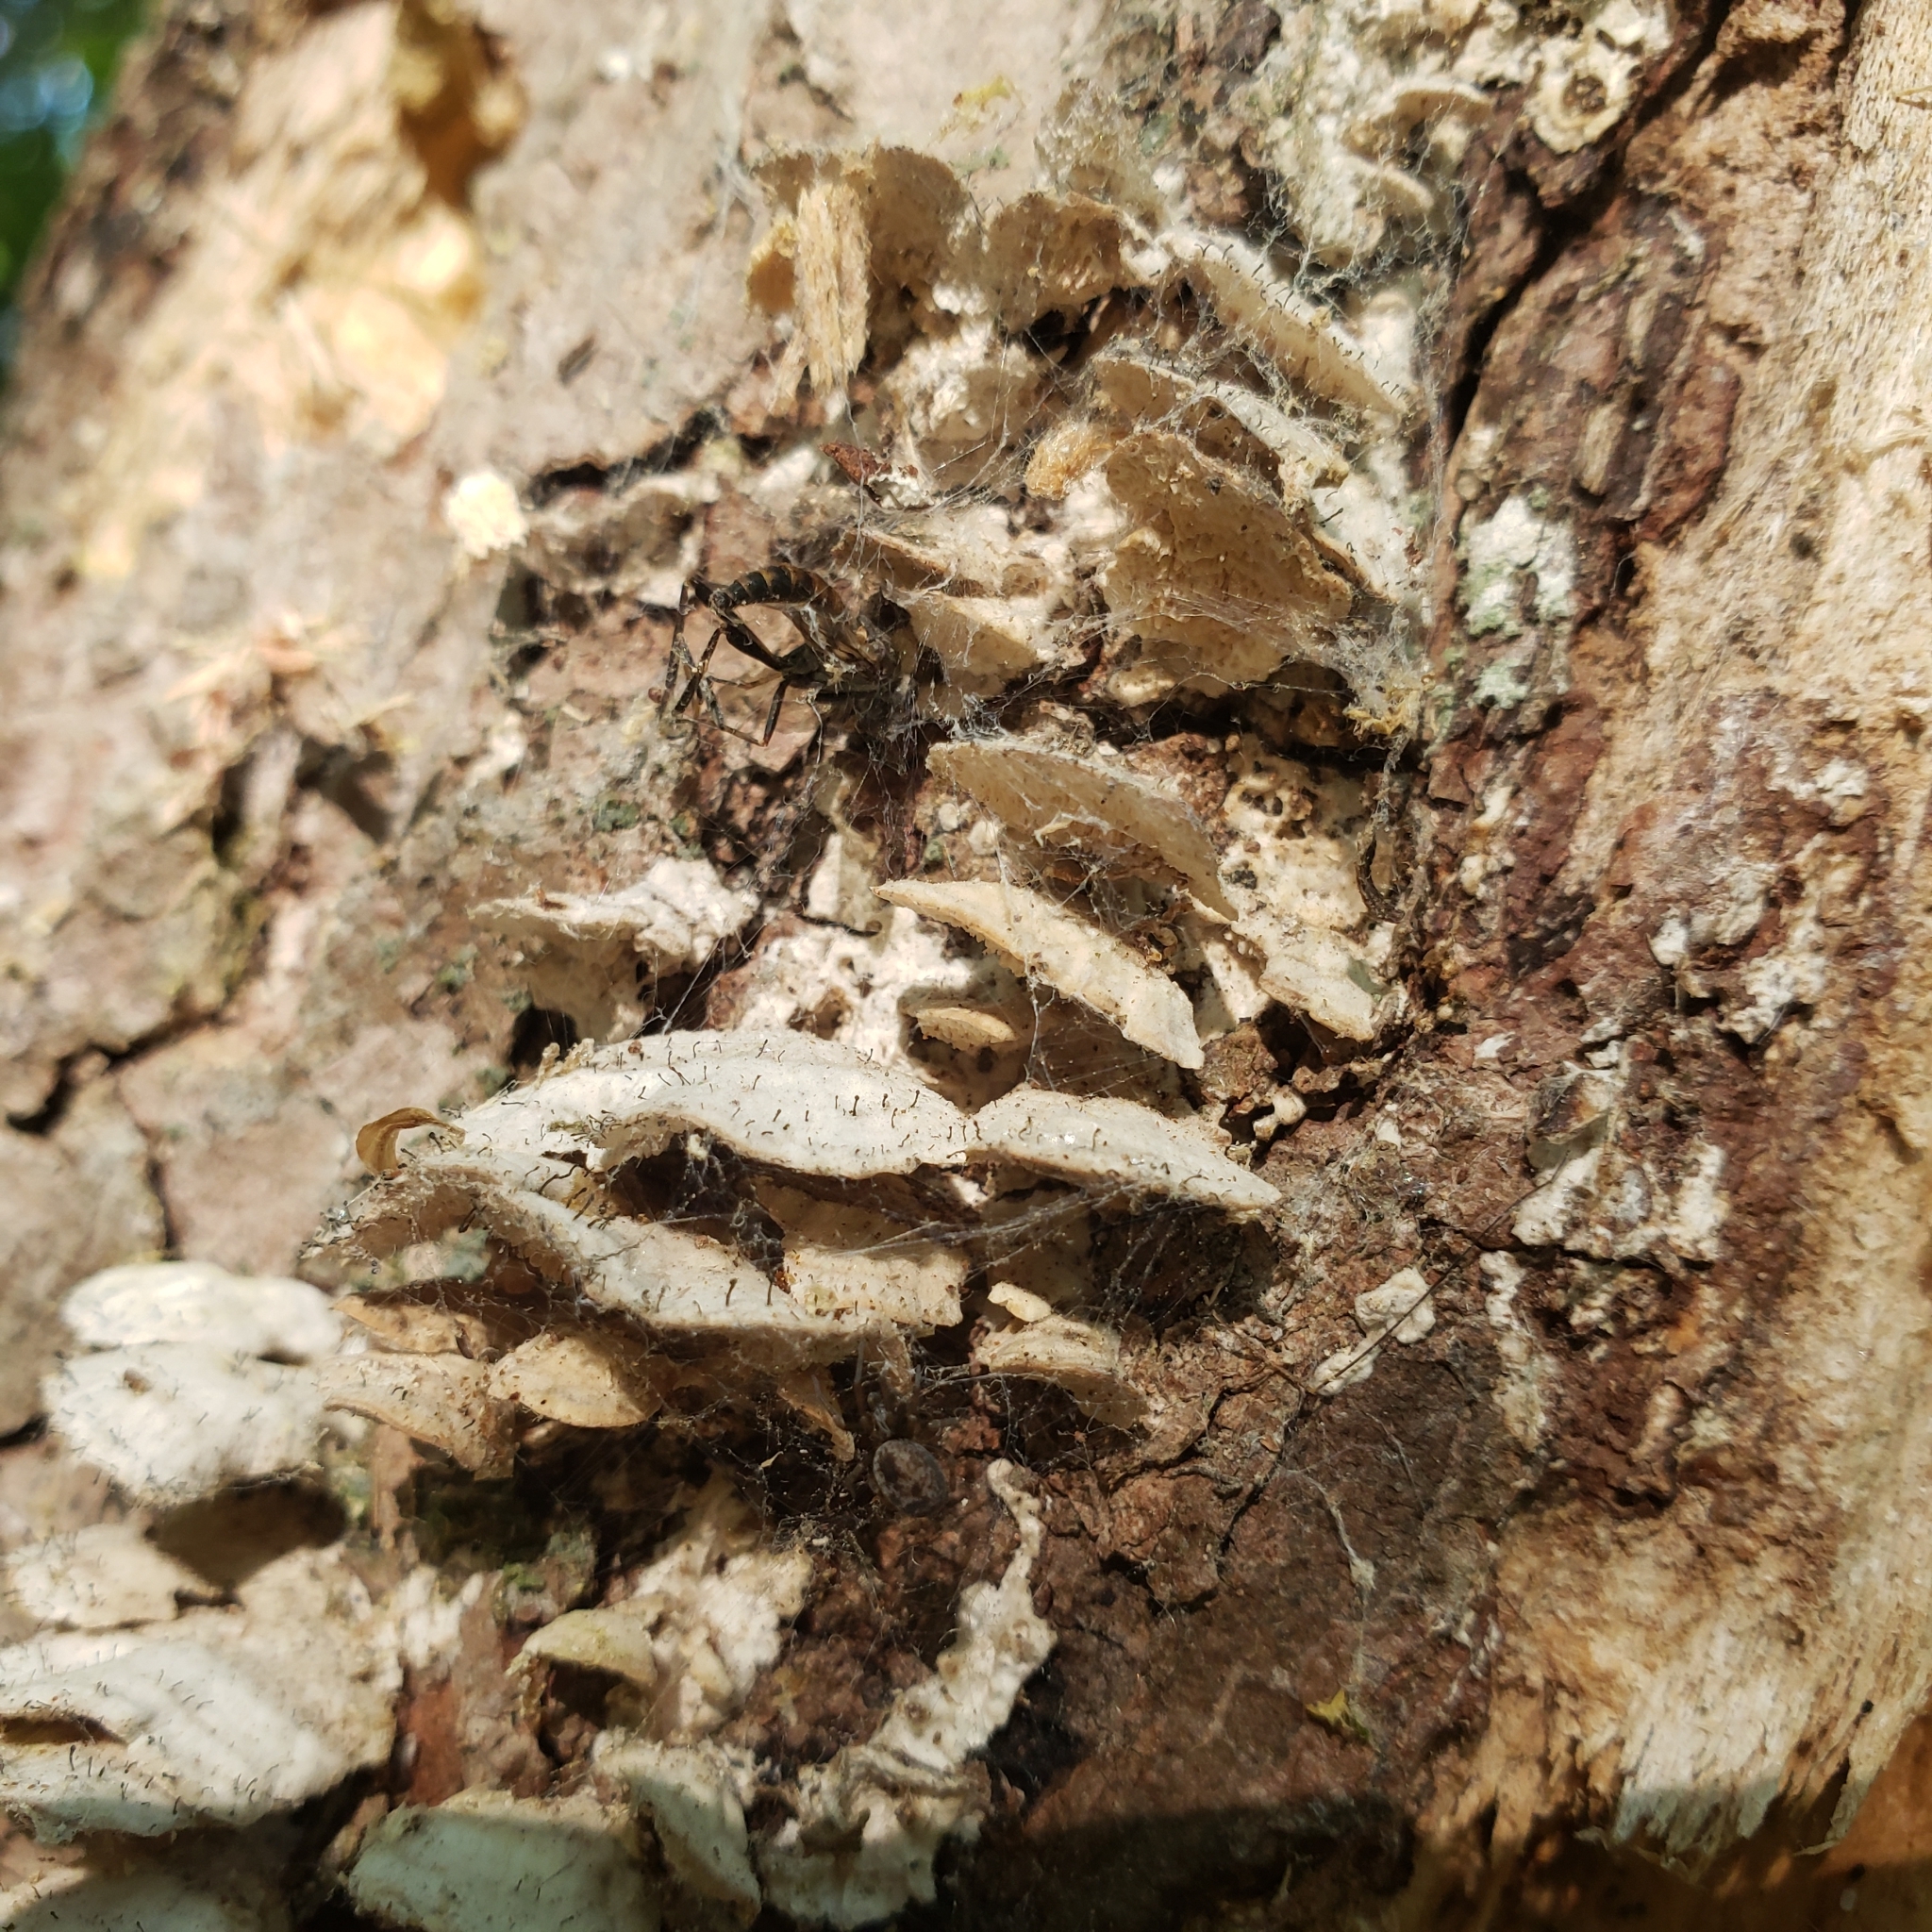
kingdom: Fungi
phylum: Ascomycota
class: Eurotiomycetes
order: Mycocaliciales
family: Mycocaliciaceae
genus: Phaeocalicium
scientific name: Phaeocalicium polyporaeum
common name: Fairy pins
